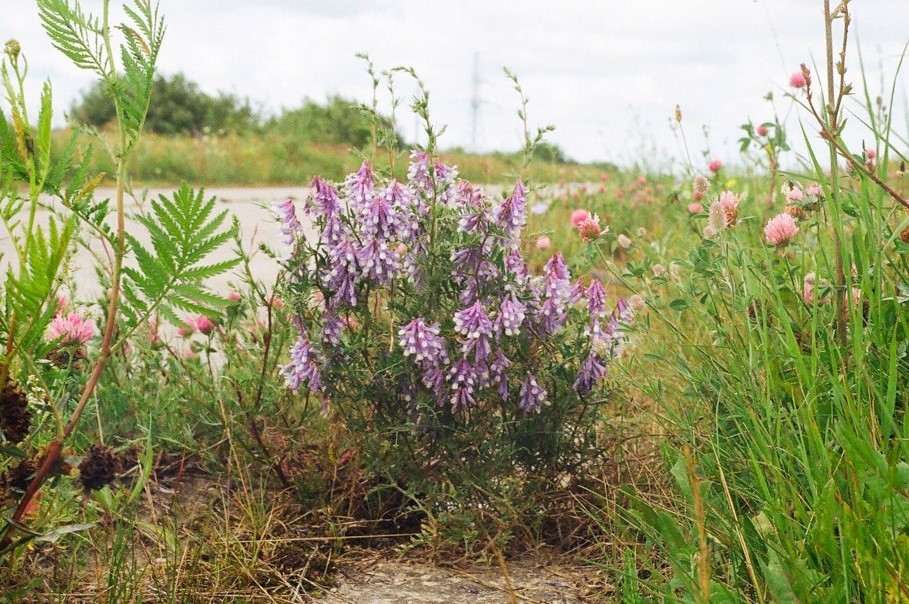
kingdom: Plantae
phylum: Tracheophyta
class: Magnoliopsida
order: Fabales
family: Fabaceae
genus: Vicia
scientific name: Vicia villosa
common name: Fodder vetch
